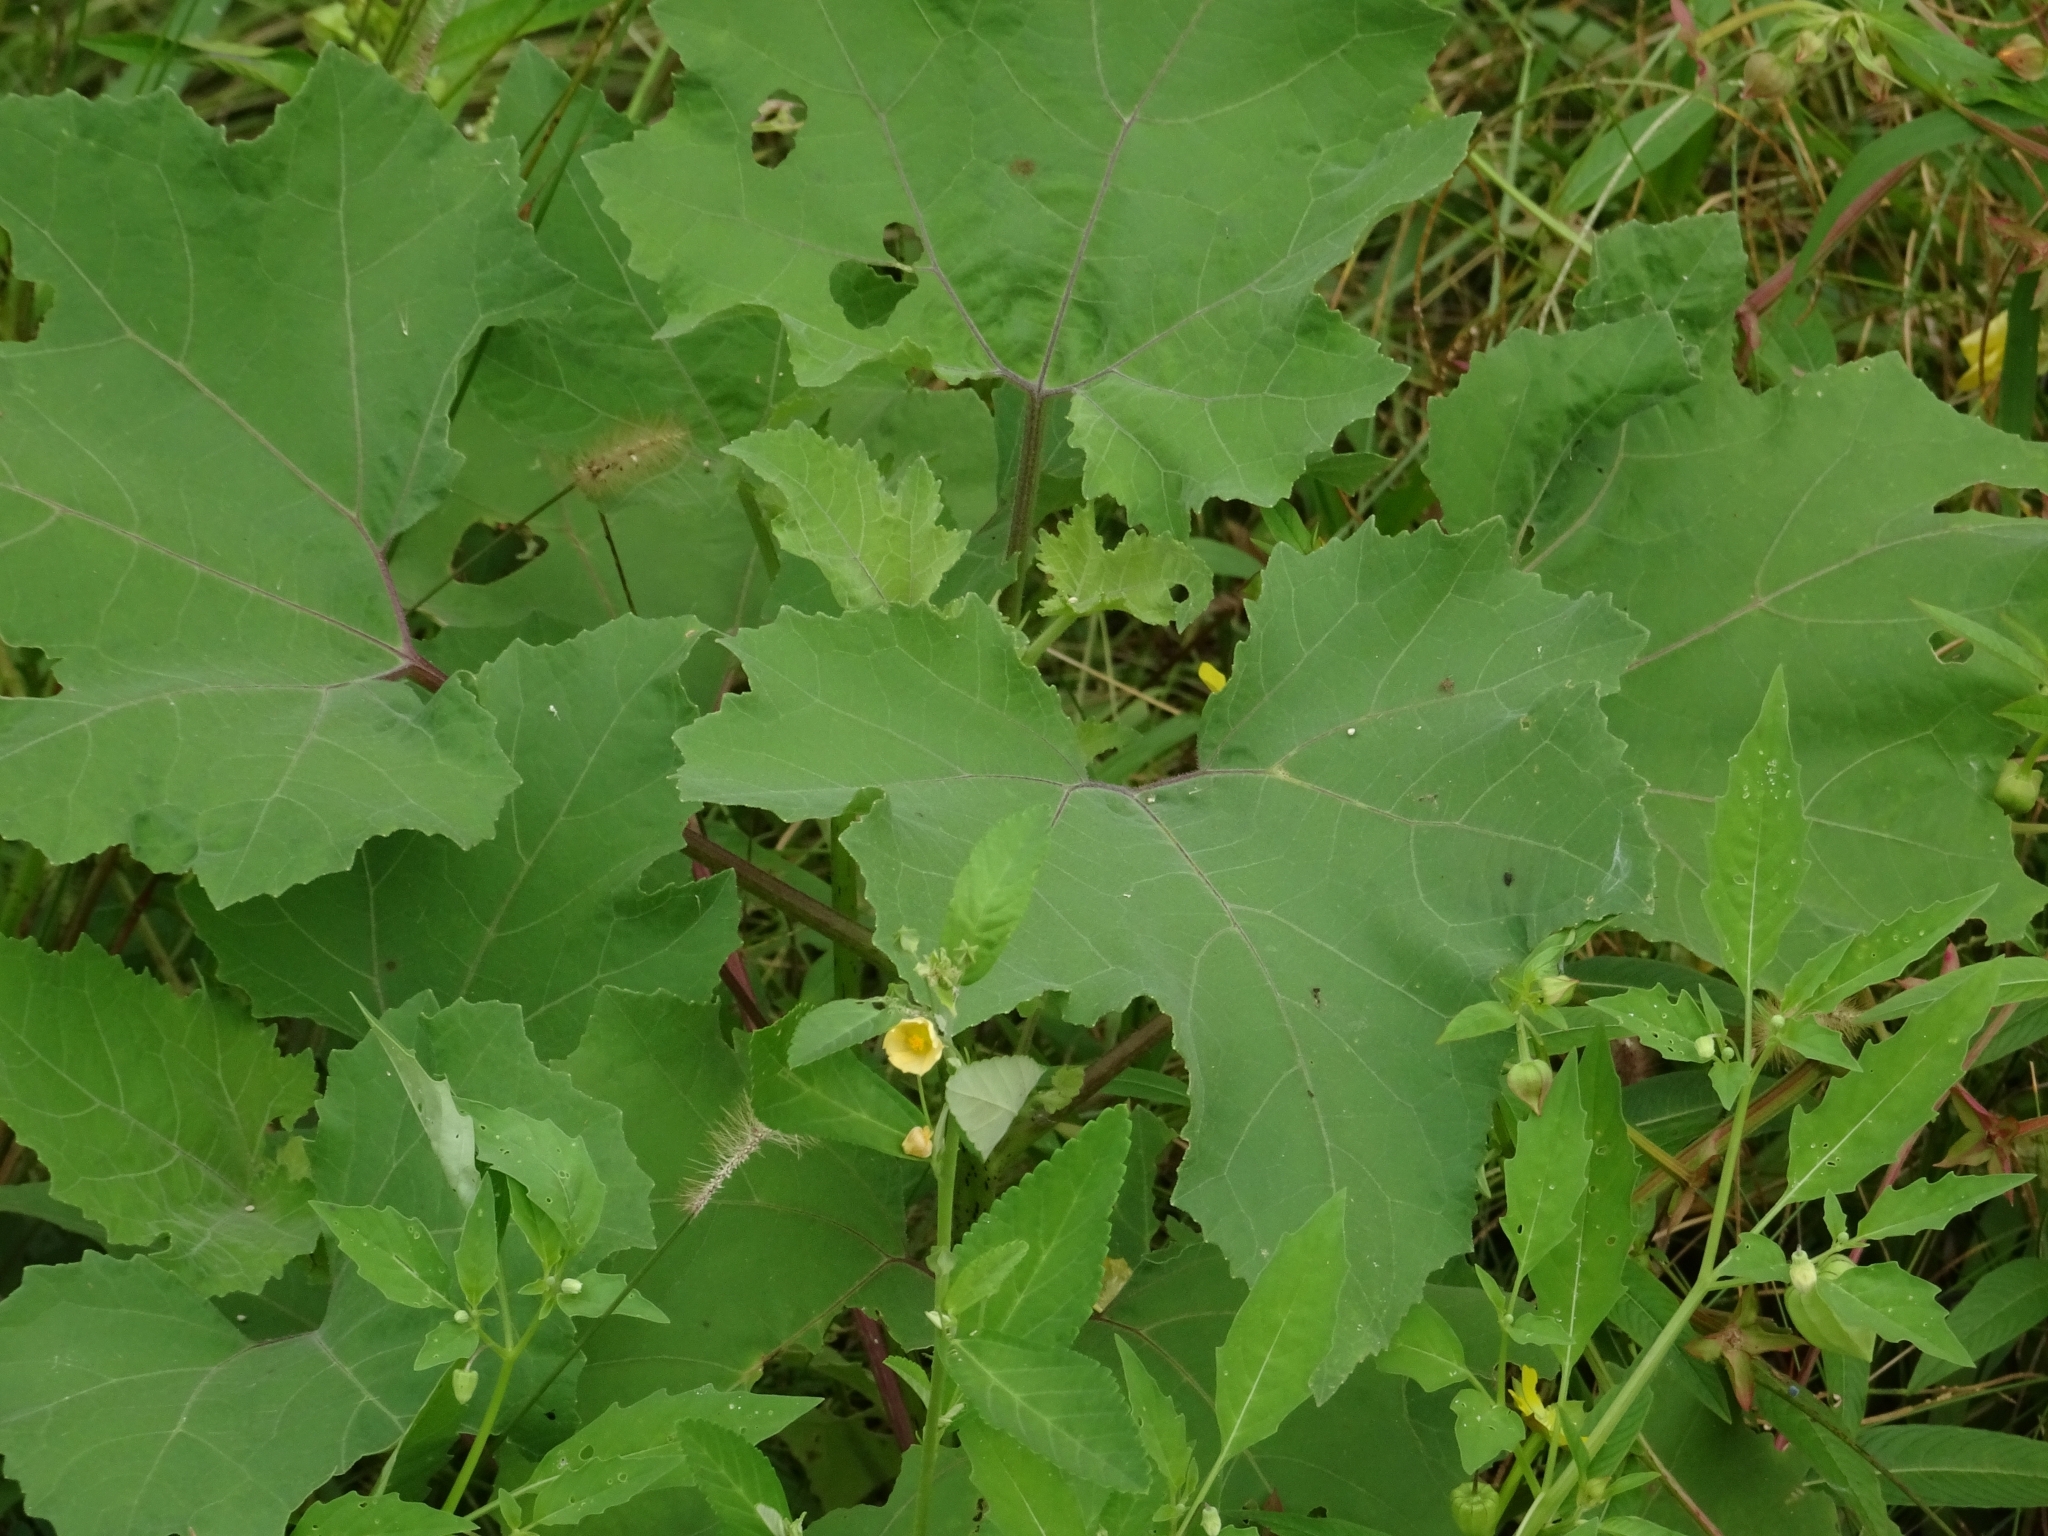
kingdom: Plantae
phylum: Tracheophyta
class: Magnoliopsida
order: Asterales
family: Asteraceae
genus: Xanthium
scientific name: Xanthium strumarium
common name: Rough cocklebur
